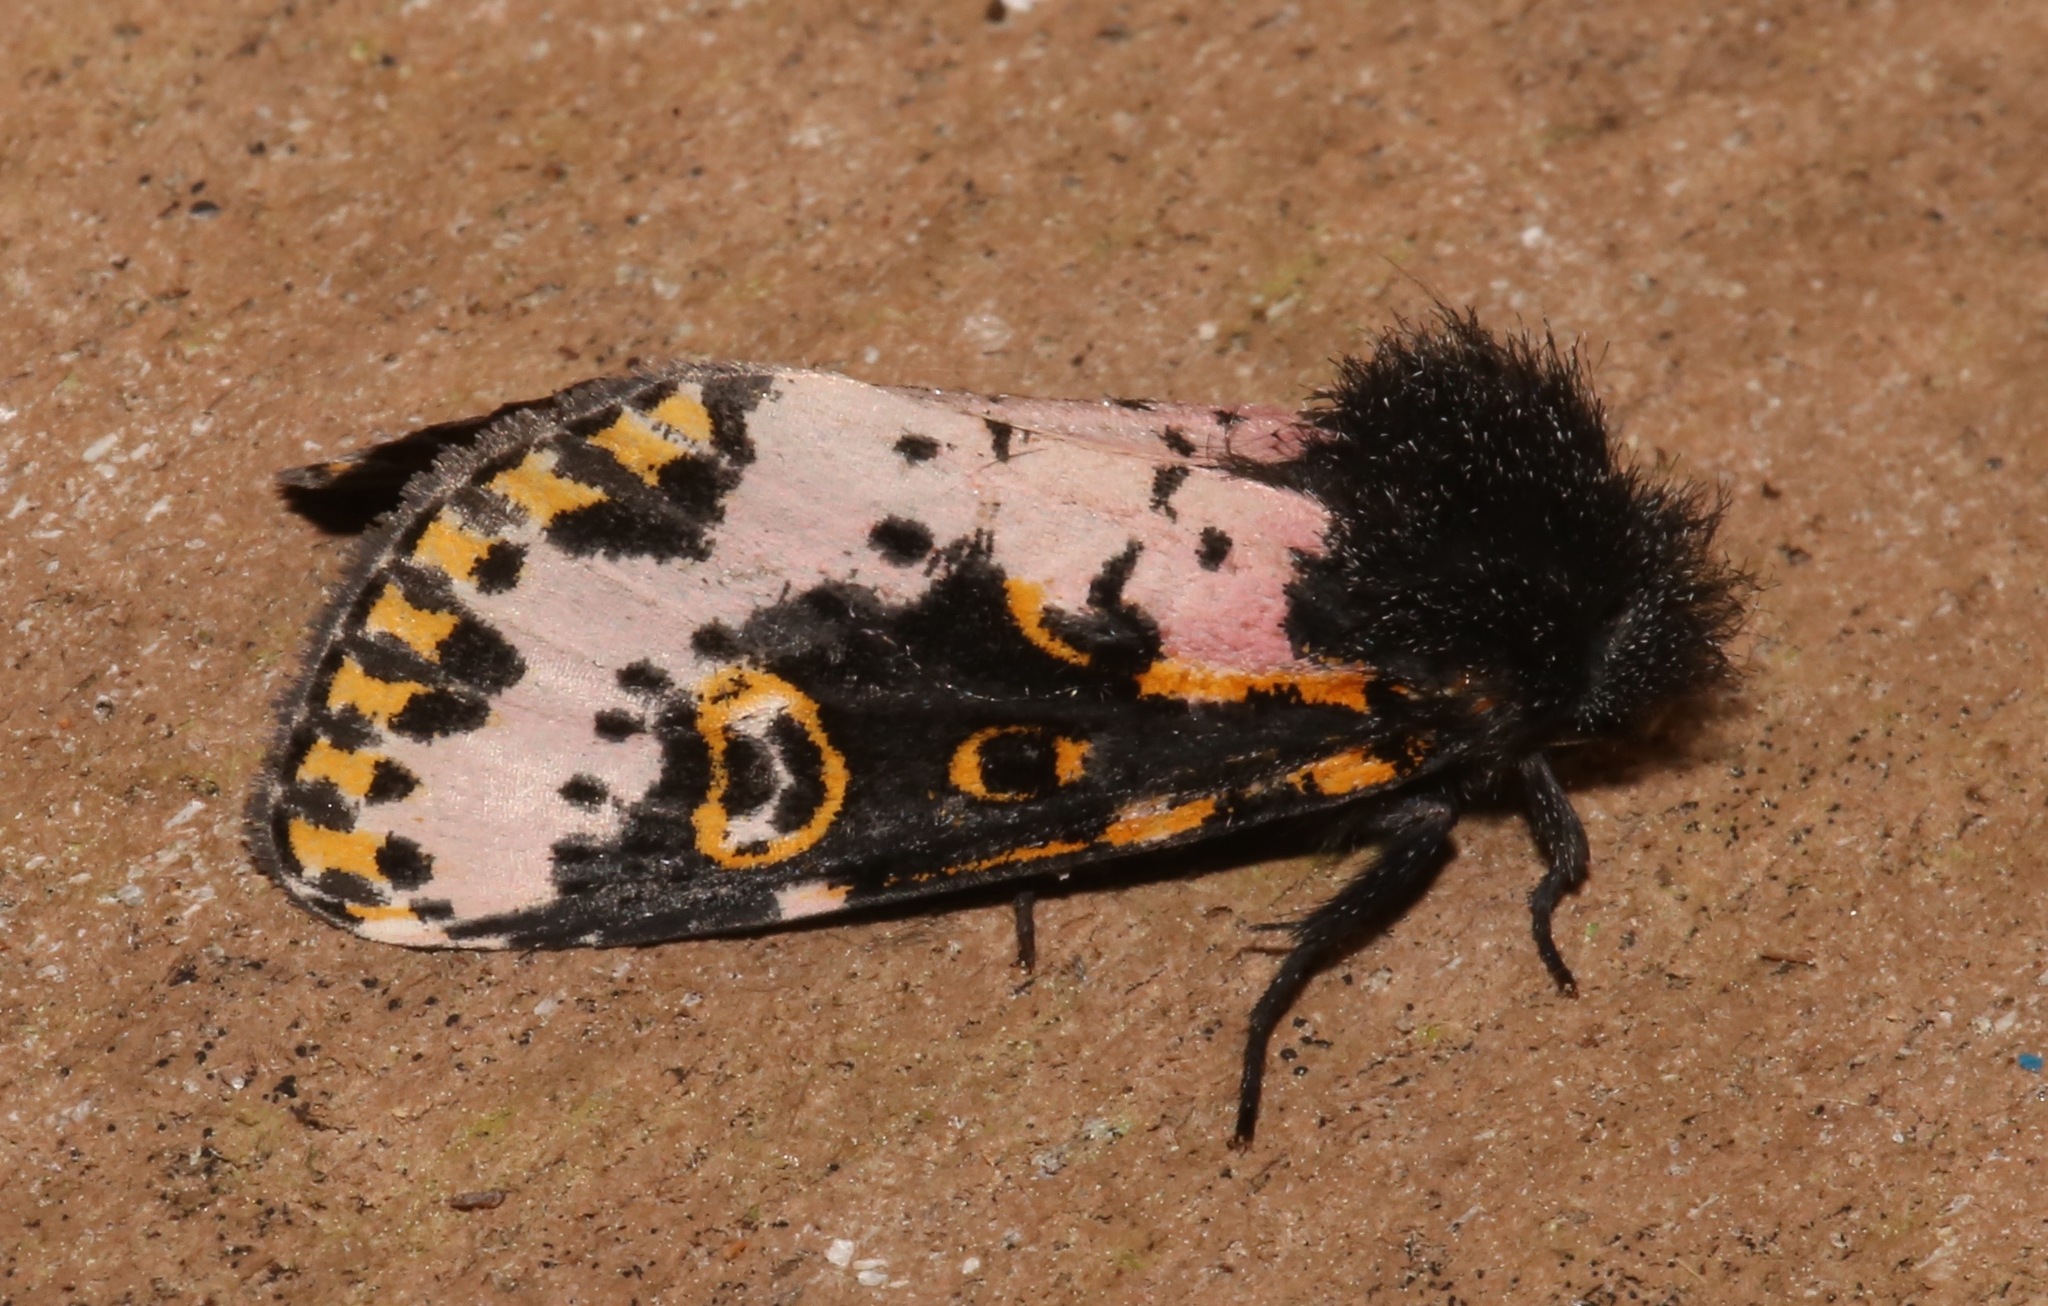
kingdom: Animalia
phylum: Arthropoda
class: Insecta
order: Lepidoptera
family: Noctuidae
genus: Xanthopastis
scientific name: Xanthopastis regnatrix
